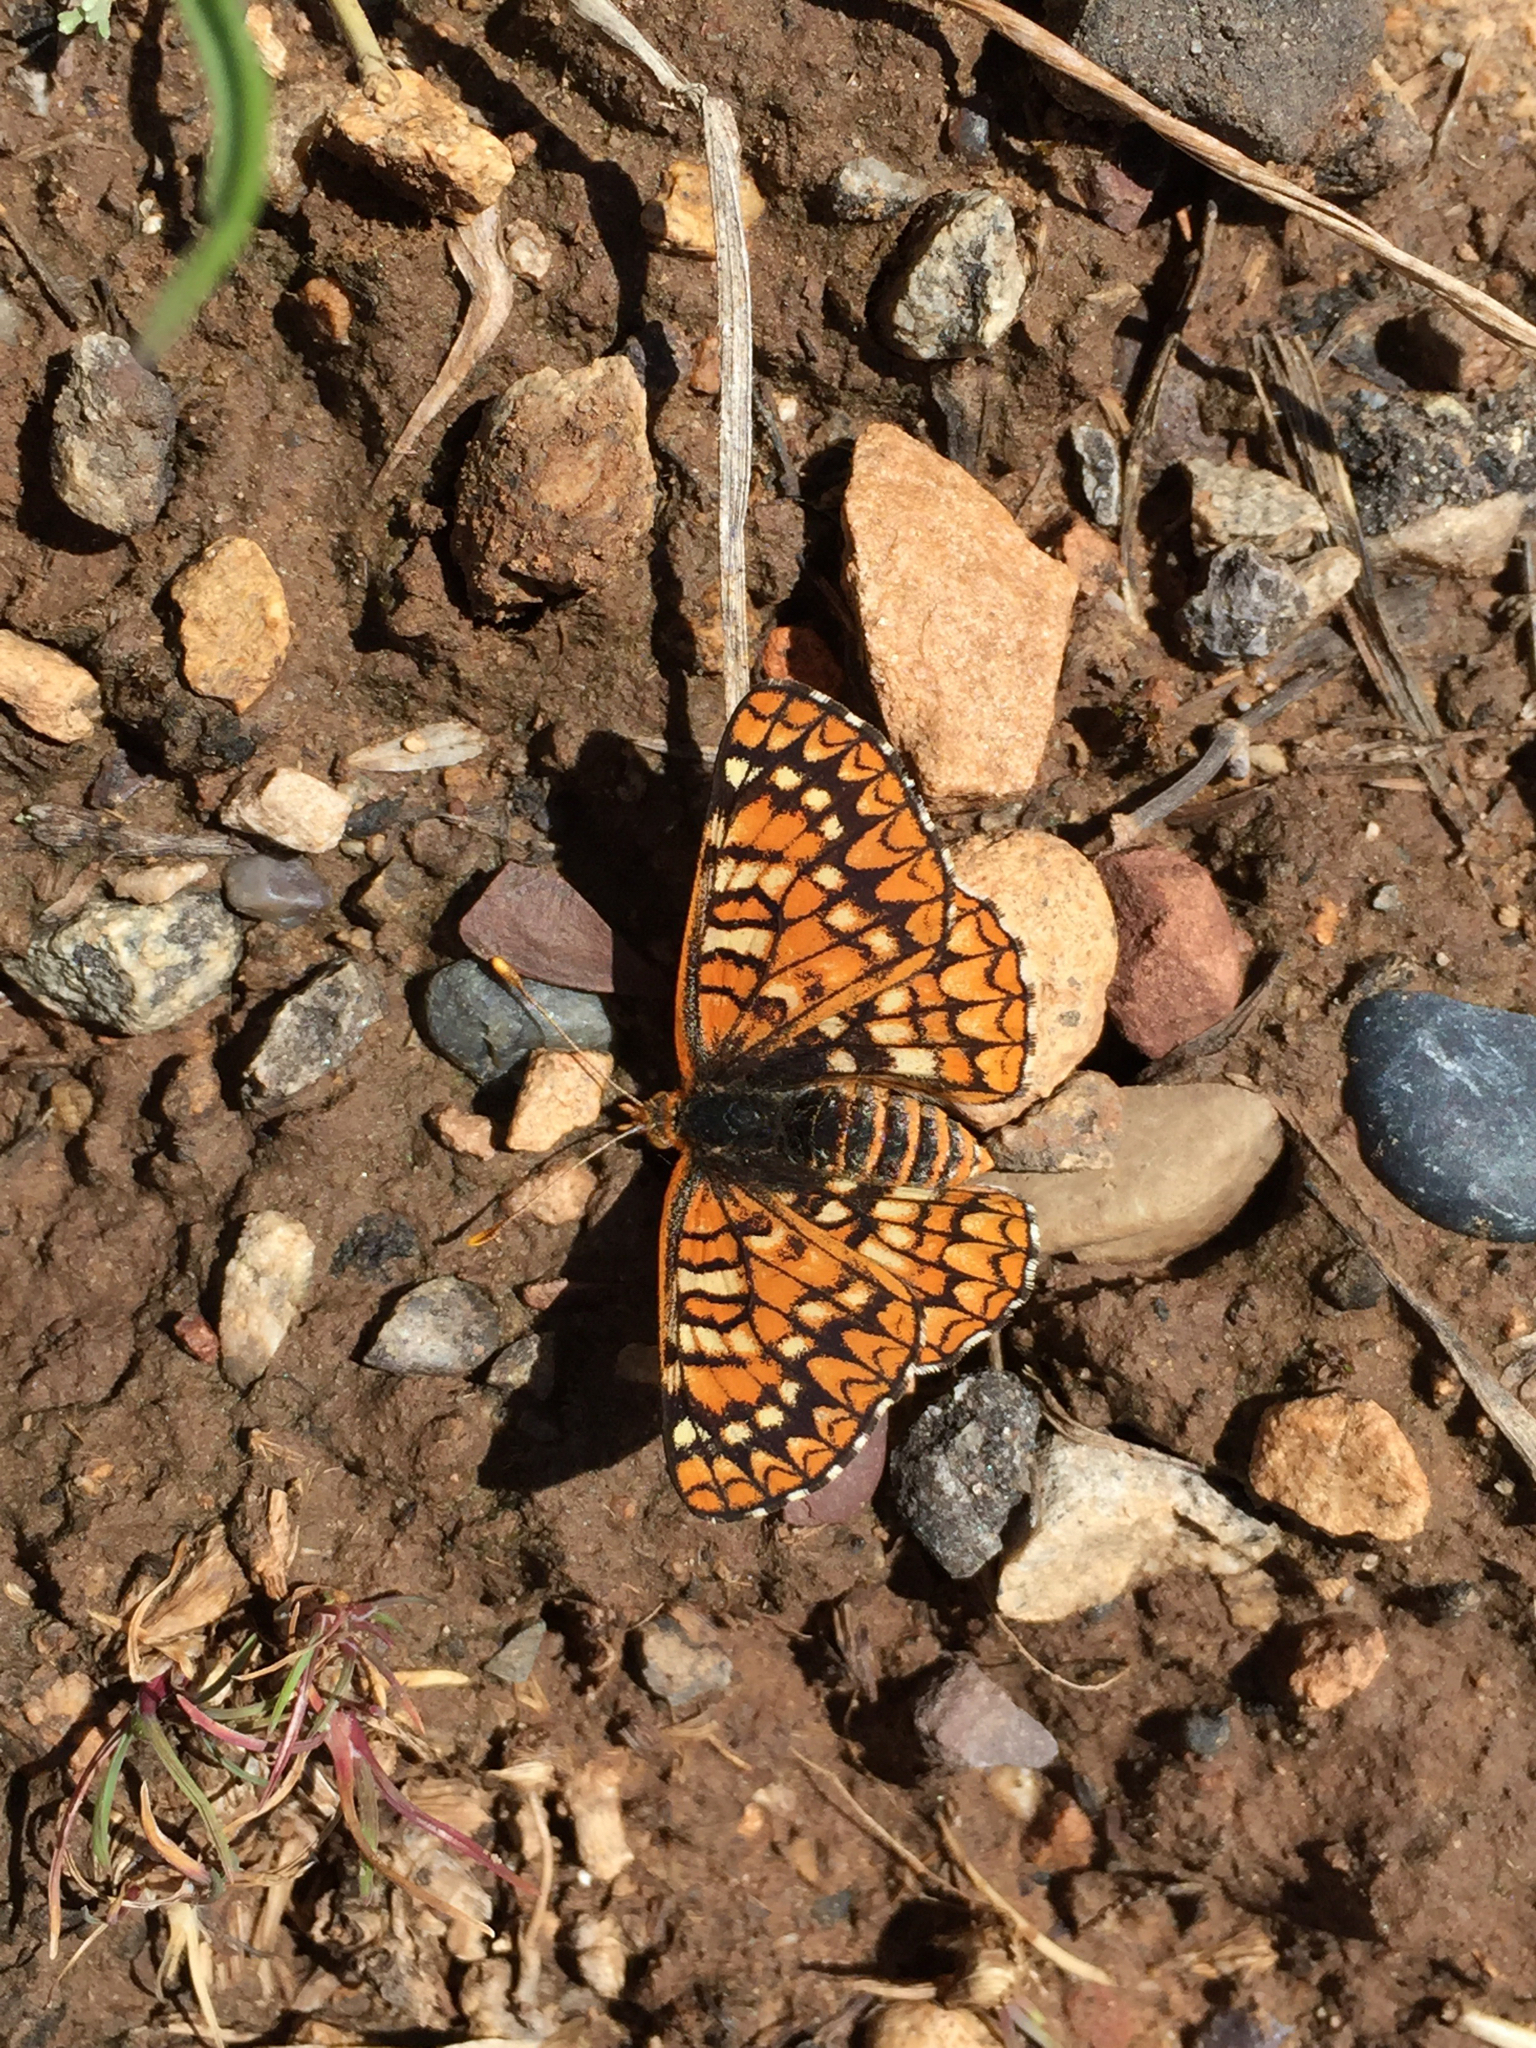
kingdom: Animalia
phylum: Arthropoda
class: Insecta
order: Lepidoptera
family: Nymphalidae
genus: Occidryas
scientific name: Occidryas anicia
